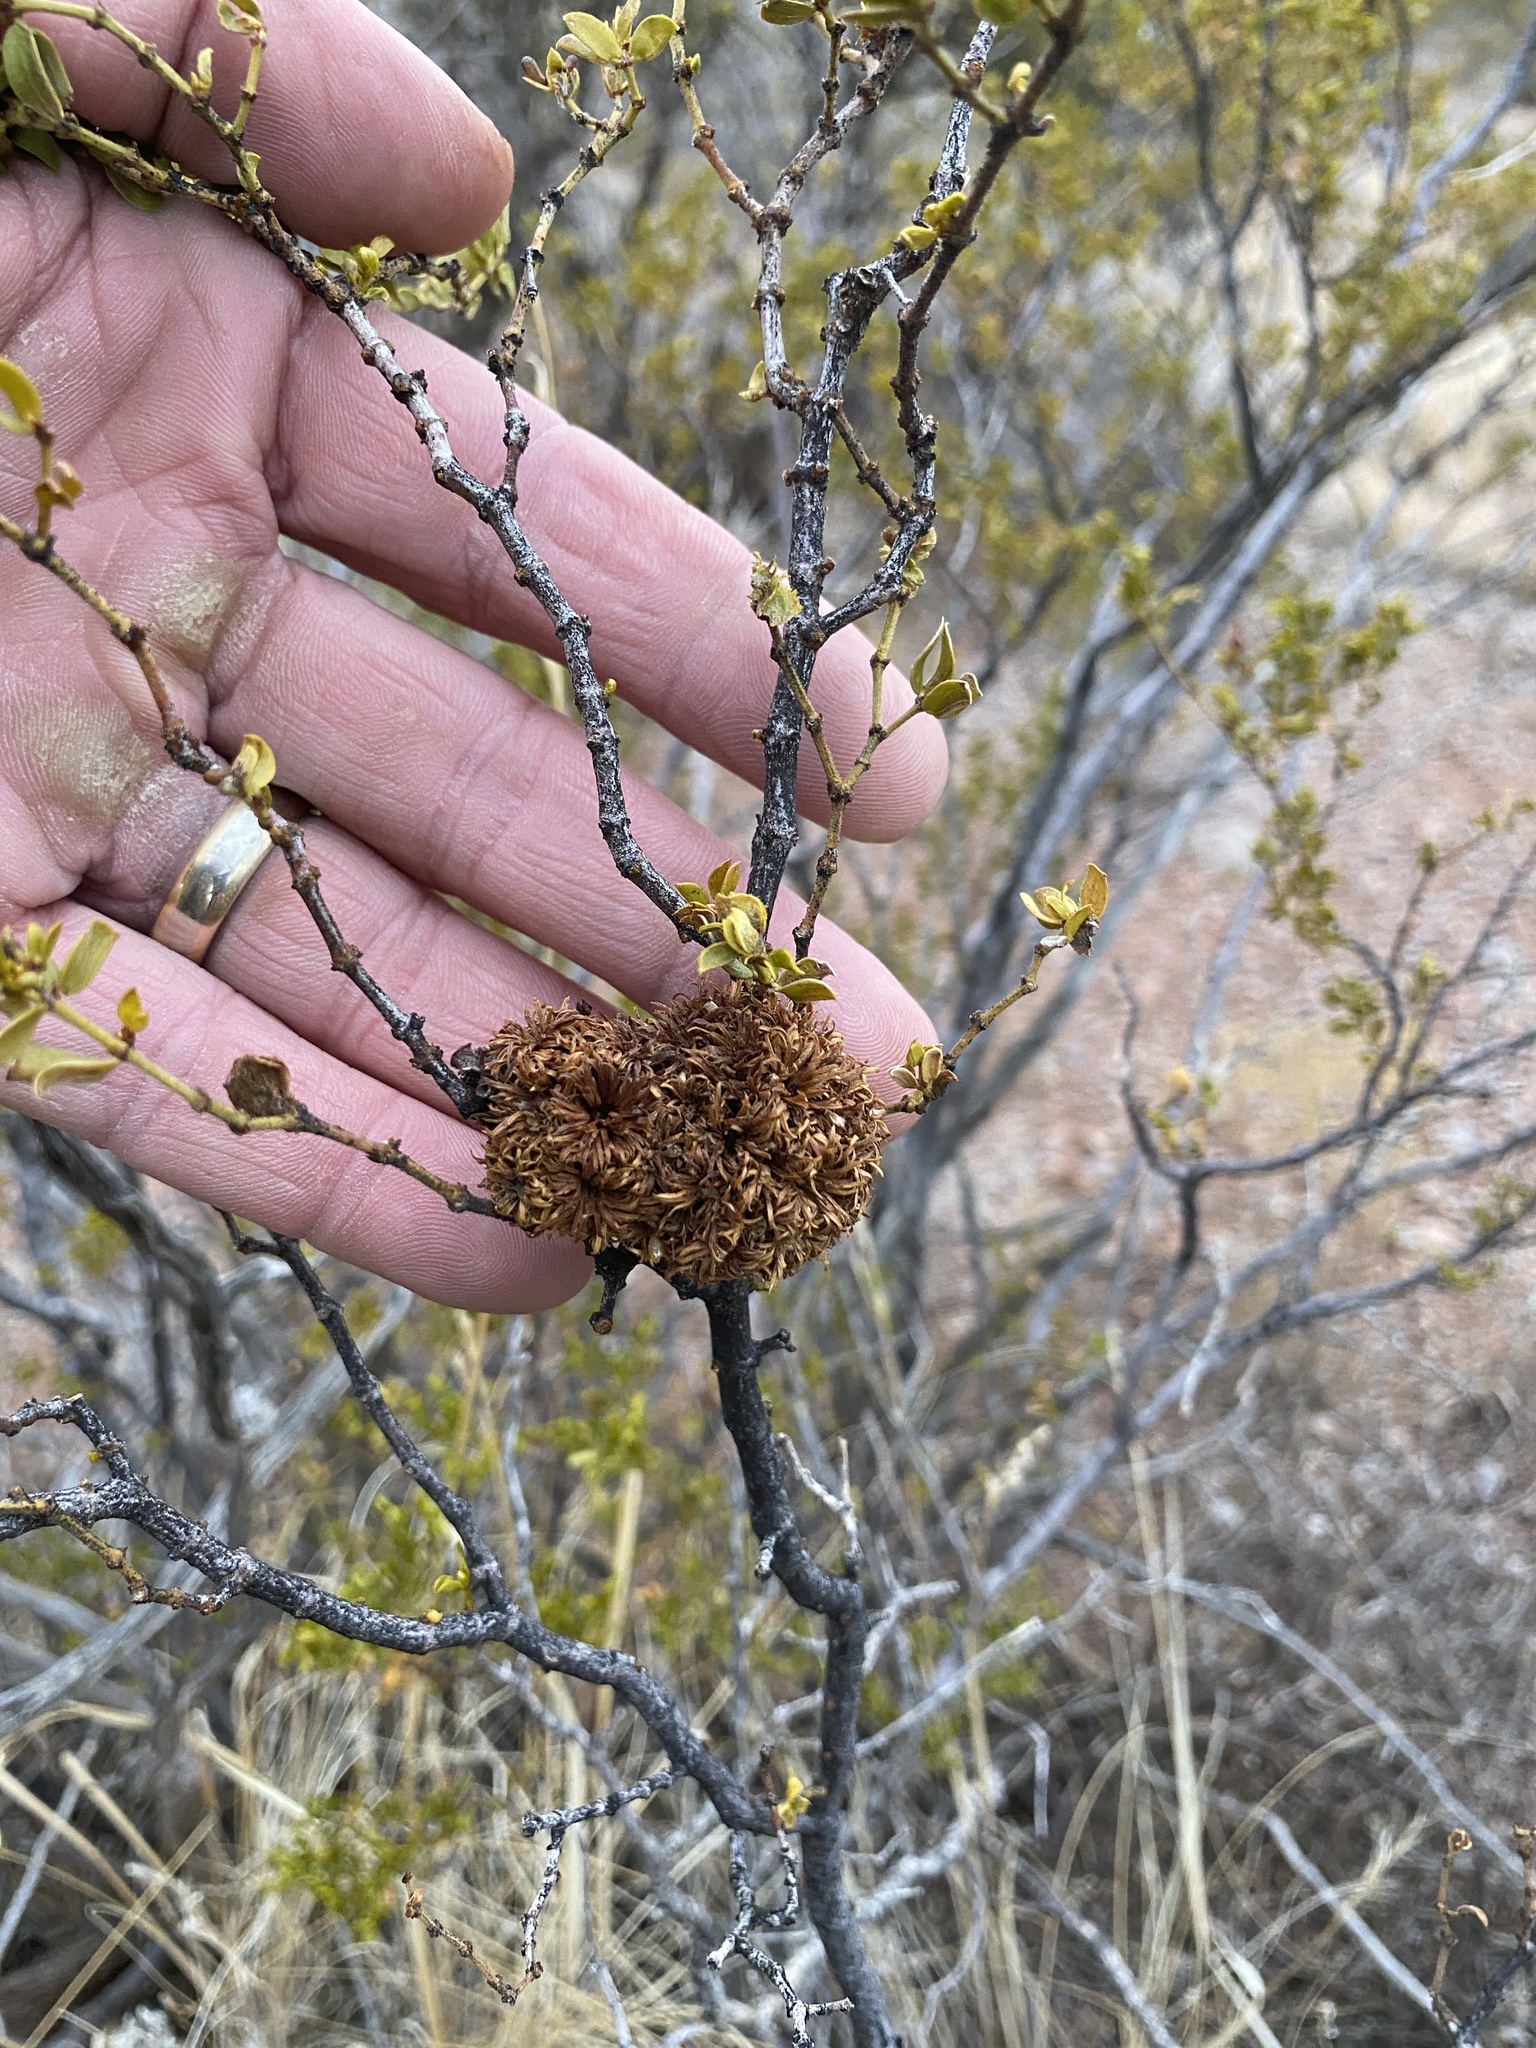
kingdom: Animalia
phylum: Arthropoda
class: Insecta
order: Diptera
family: Cecidomyiidae
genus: Asphondylia
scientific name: Asphondylia auripila
